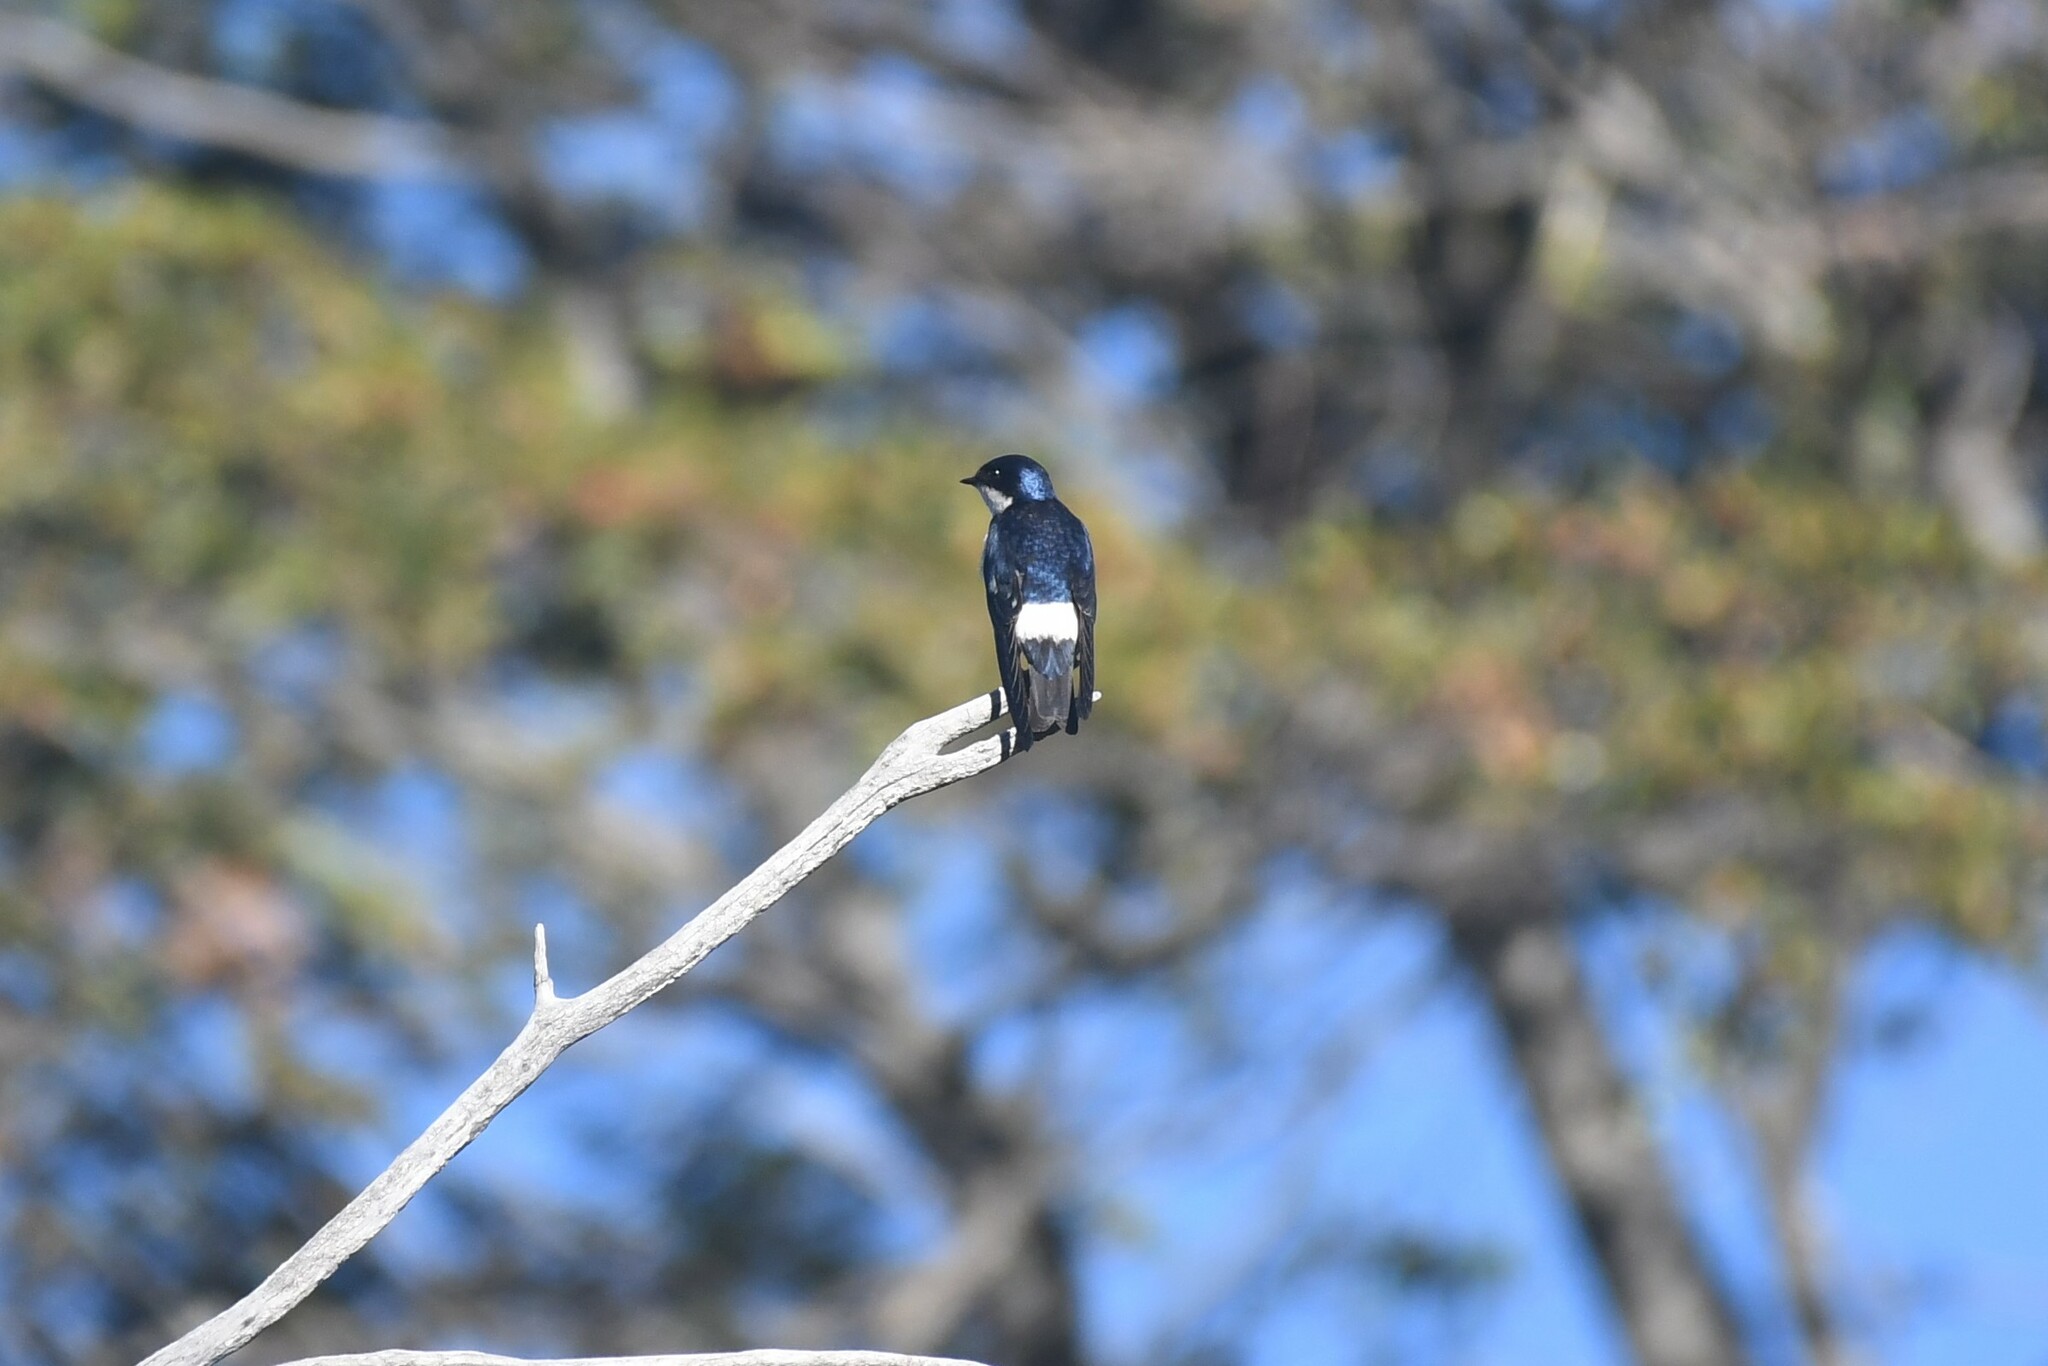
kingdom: Animalia
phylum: Chordata
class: Aves
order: Passeriformes
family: Hirundinidae
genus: Tachycineta
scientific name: Tachycineta leucopyga
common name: Chilean swallow
